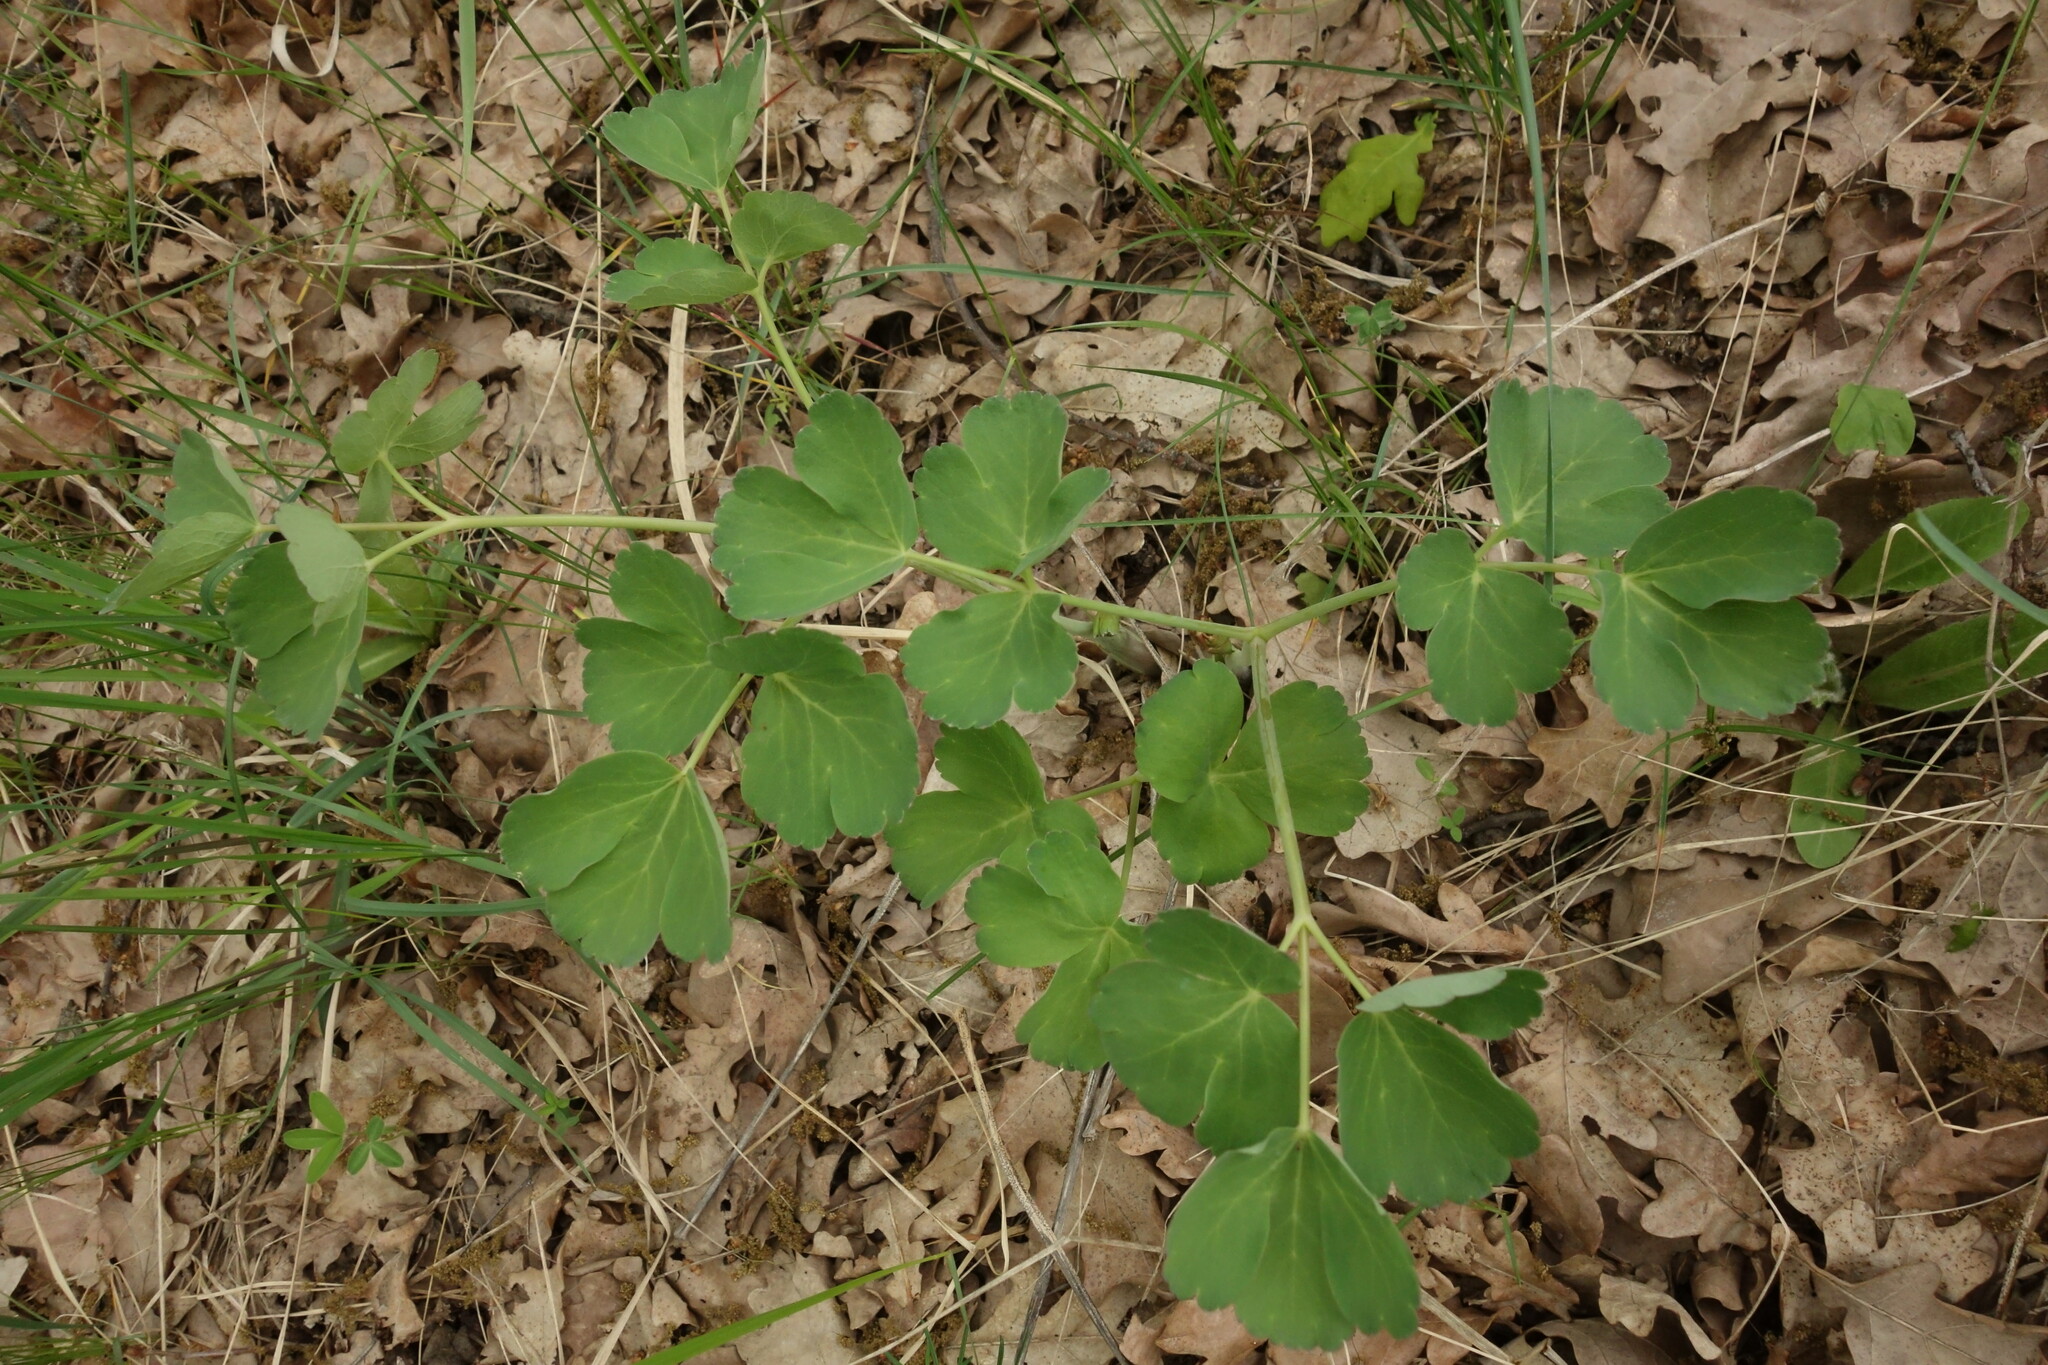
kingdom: Plantae
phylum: Tracheophyta
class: Magnoliopsida
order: Apiales
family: Apiaceae
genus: Laser
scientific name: Laser trilobum
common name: Laser
